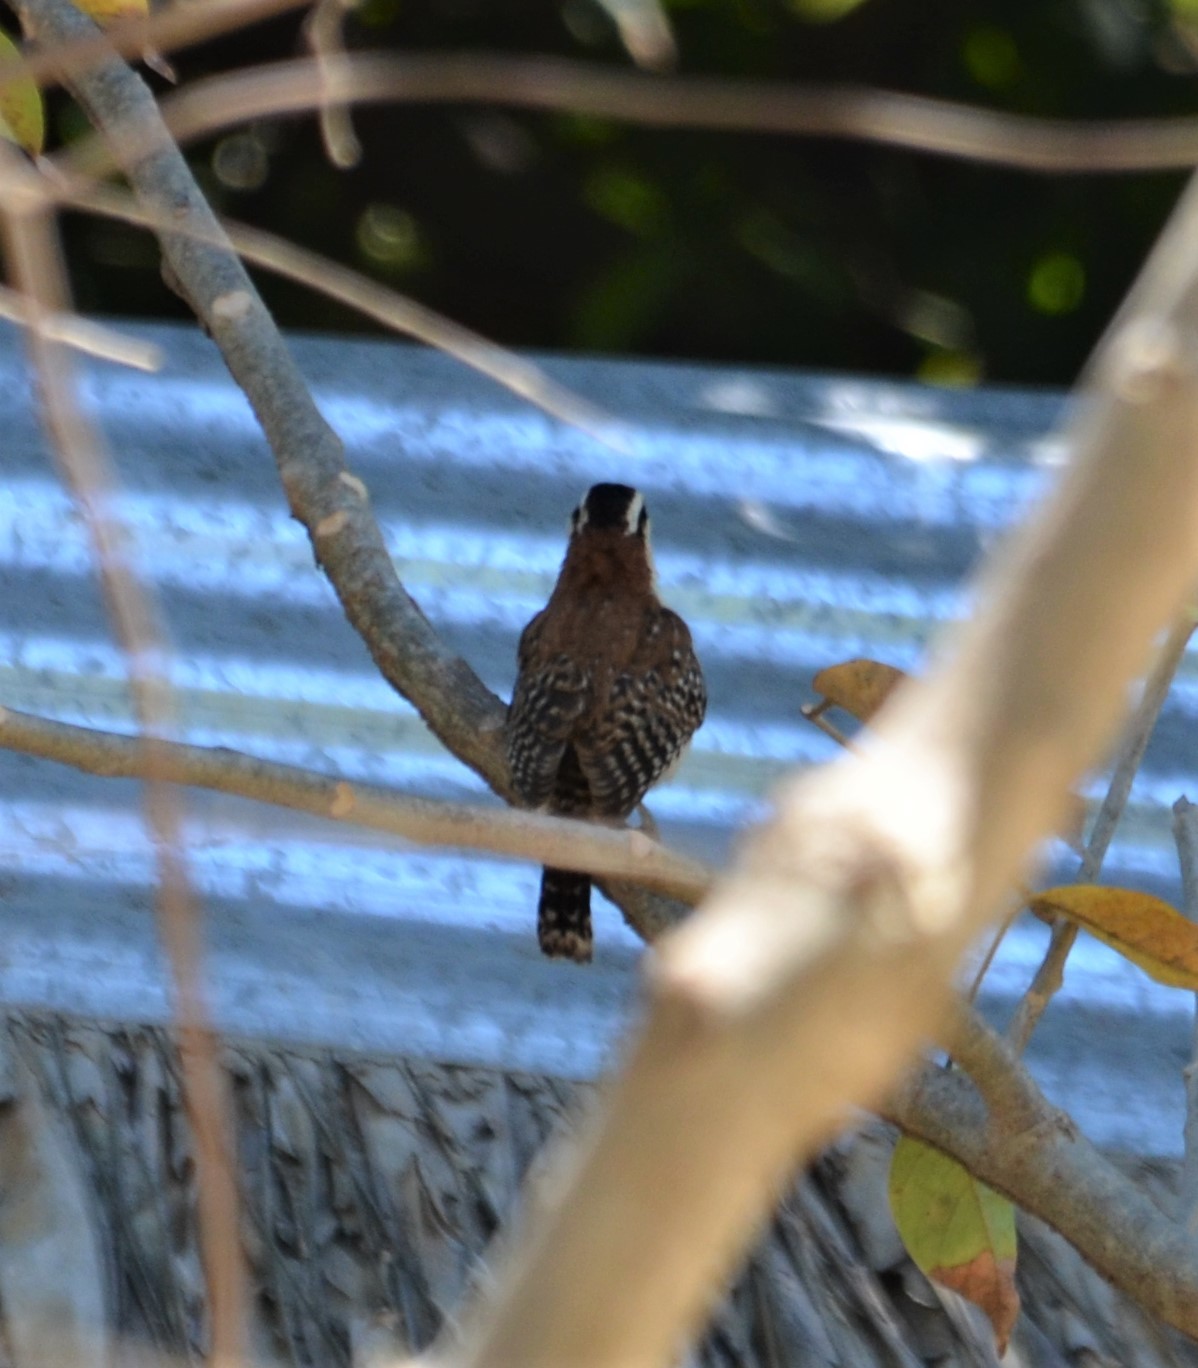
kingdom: Animalia
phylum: Chordata
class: Aves
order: Passeriformes
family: Troglodytidae
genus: Campylorhynchus
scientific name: Campylorhynchus rufinucha
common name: Rufous-naped wren
